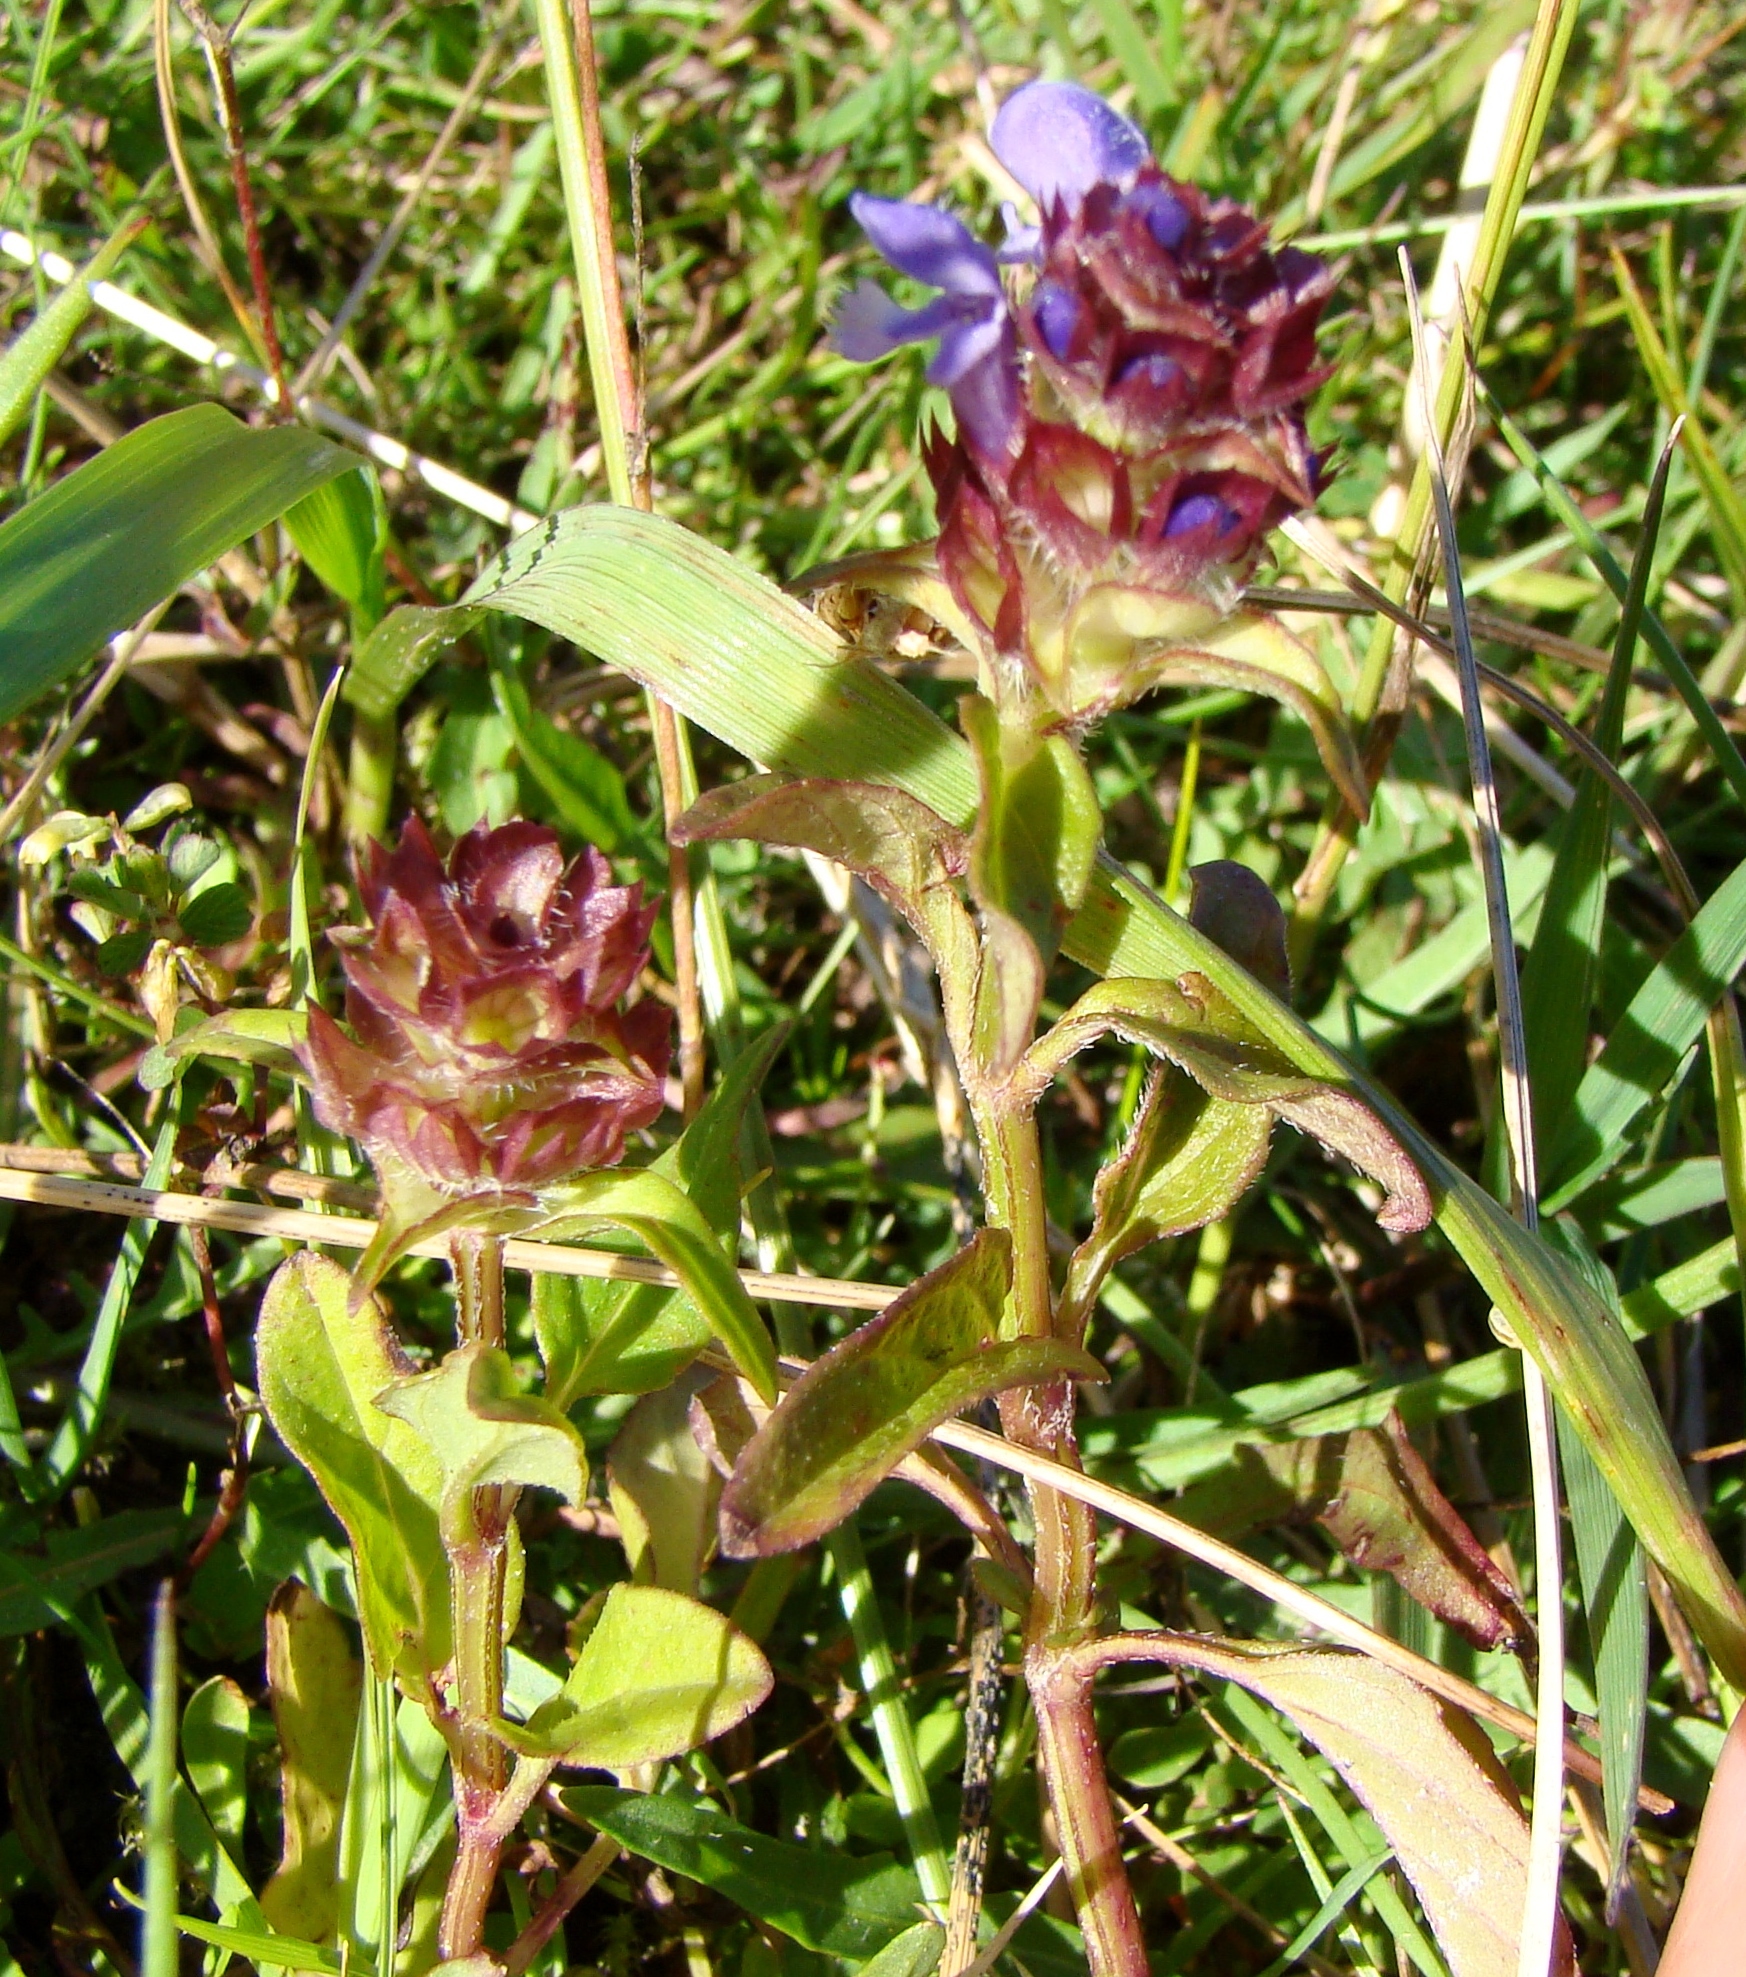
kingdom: Plantae
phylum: Tracheophyta
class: Magnoliopsida
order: Lamiales
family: Lamiaceae
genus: Prunella
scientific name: Prunella vulgaris
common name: Heal-all
